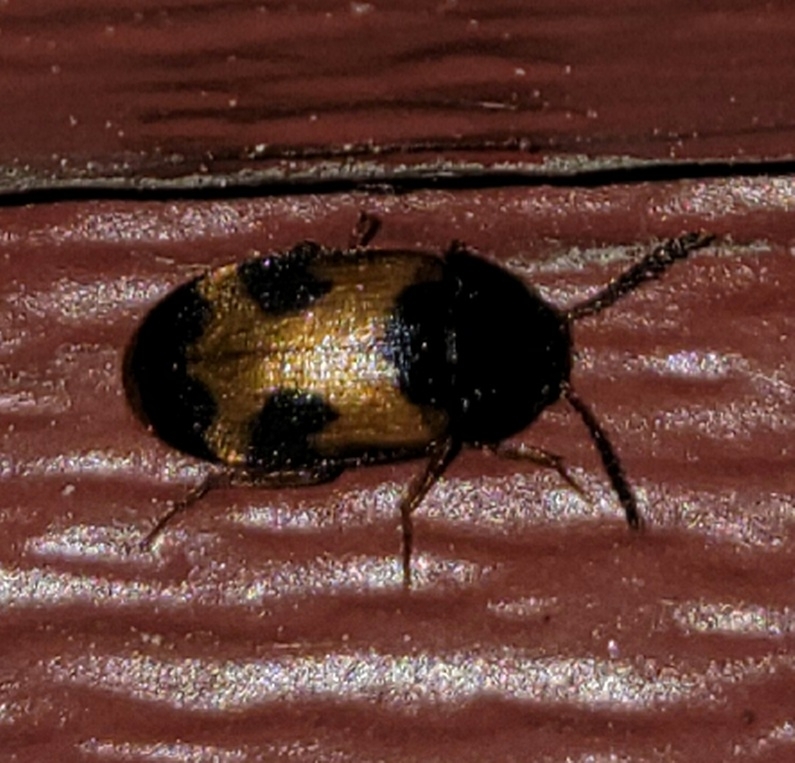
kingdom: Animalia
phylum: Arthropoda
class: Insecta
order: Coleoptera
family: Mycetophagidae
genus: Mycetophagus
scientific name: Mycetophagus punctatus
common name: Hairy fungus beetle
